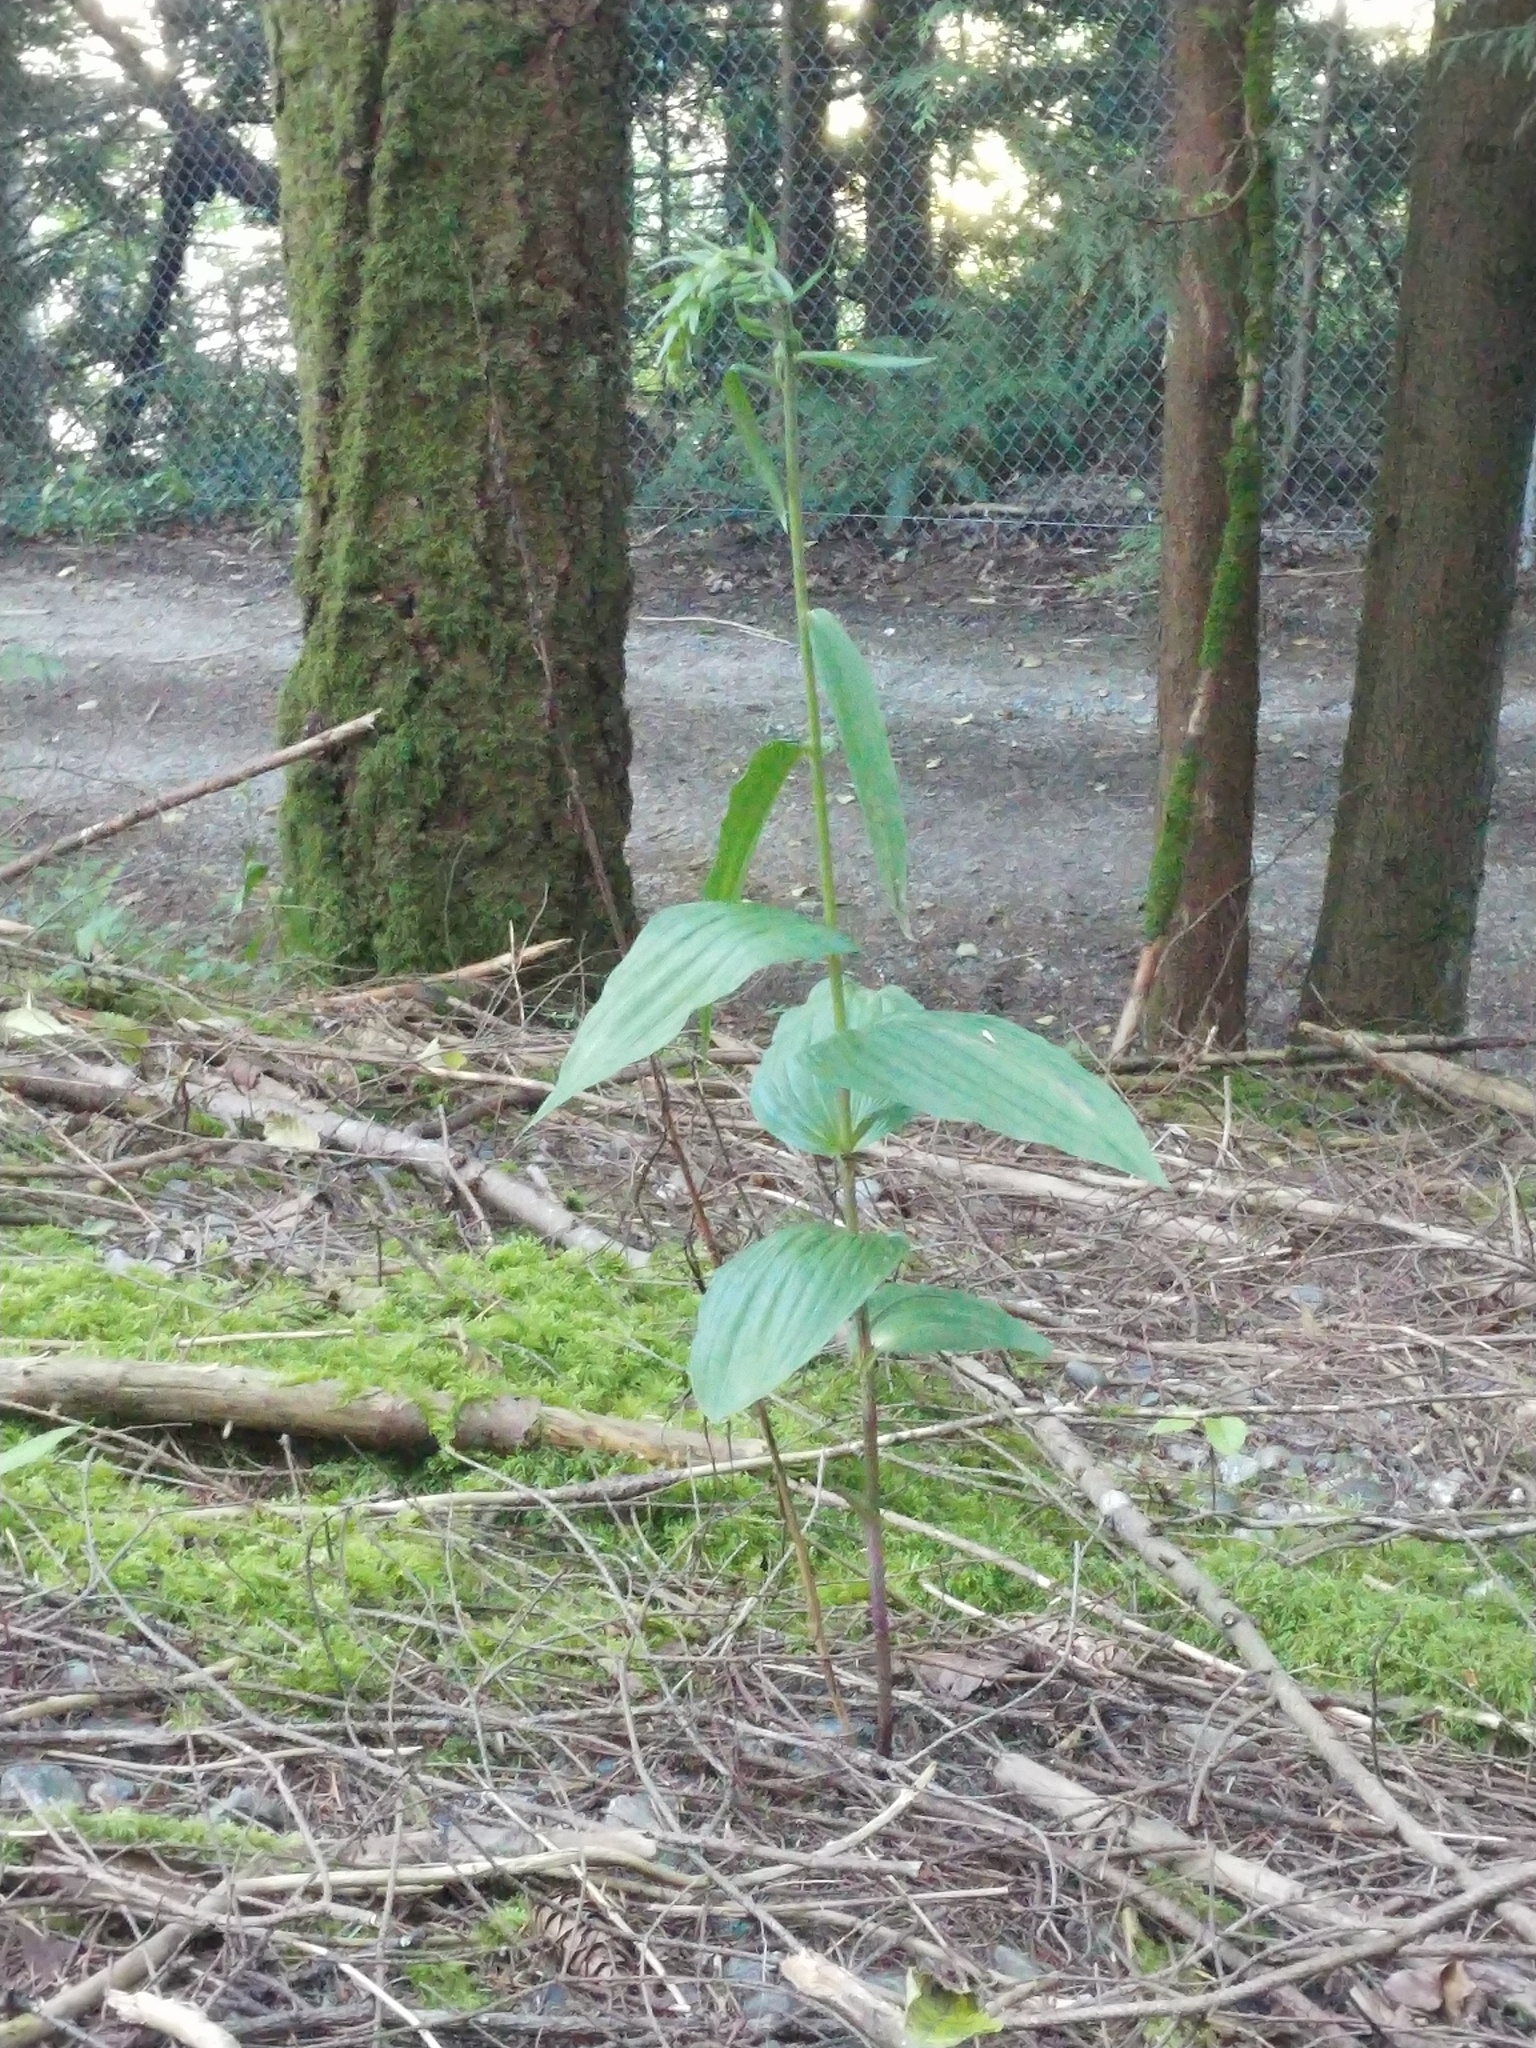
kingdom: Plantae
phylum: Tracheophyta
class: Liliopsida
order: Asparagales
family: Orchidaceae
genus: Epipactis
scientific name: Epipactis helleborine
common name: Broad-leaved helleborine
